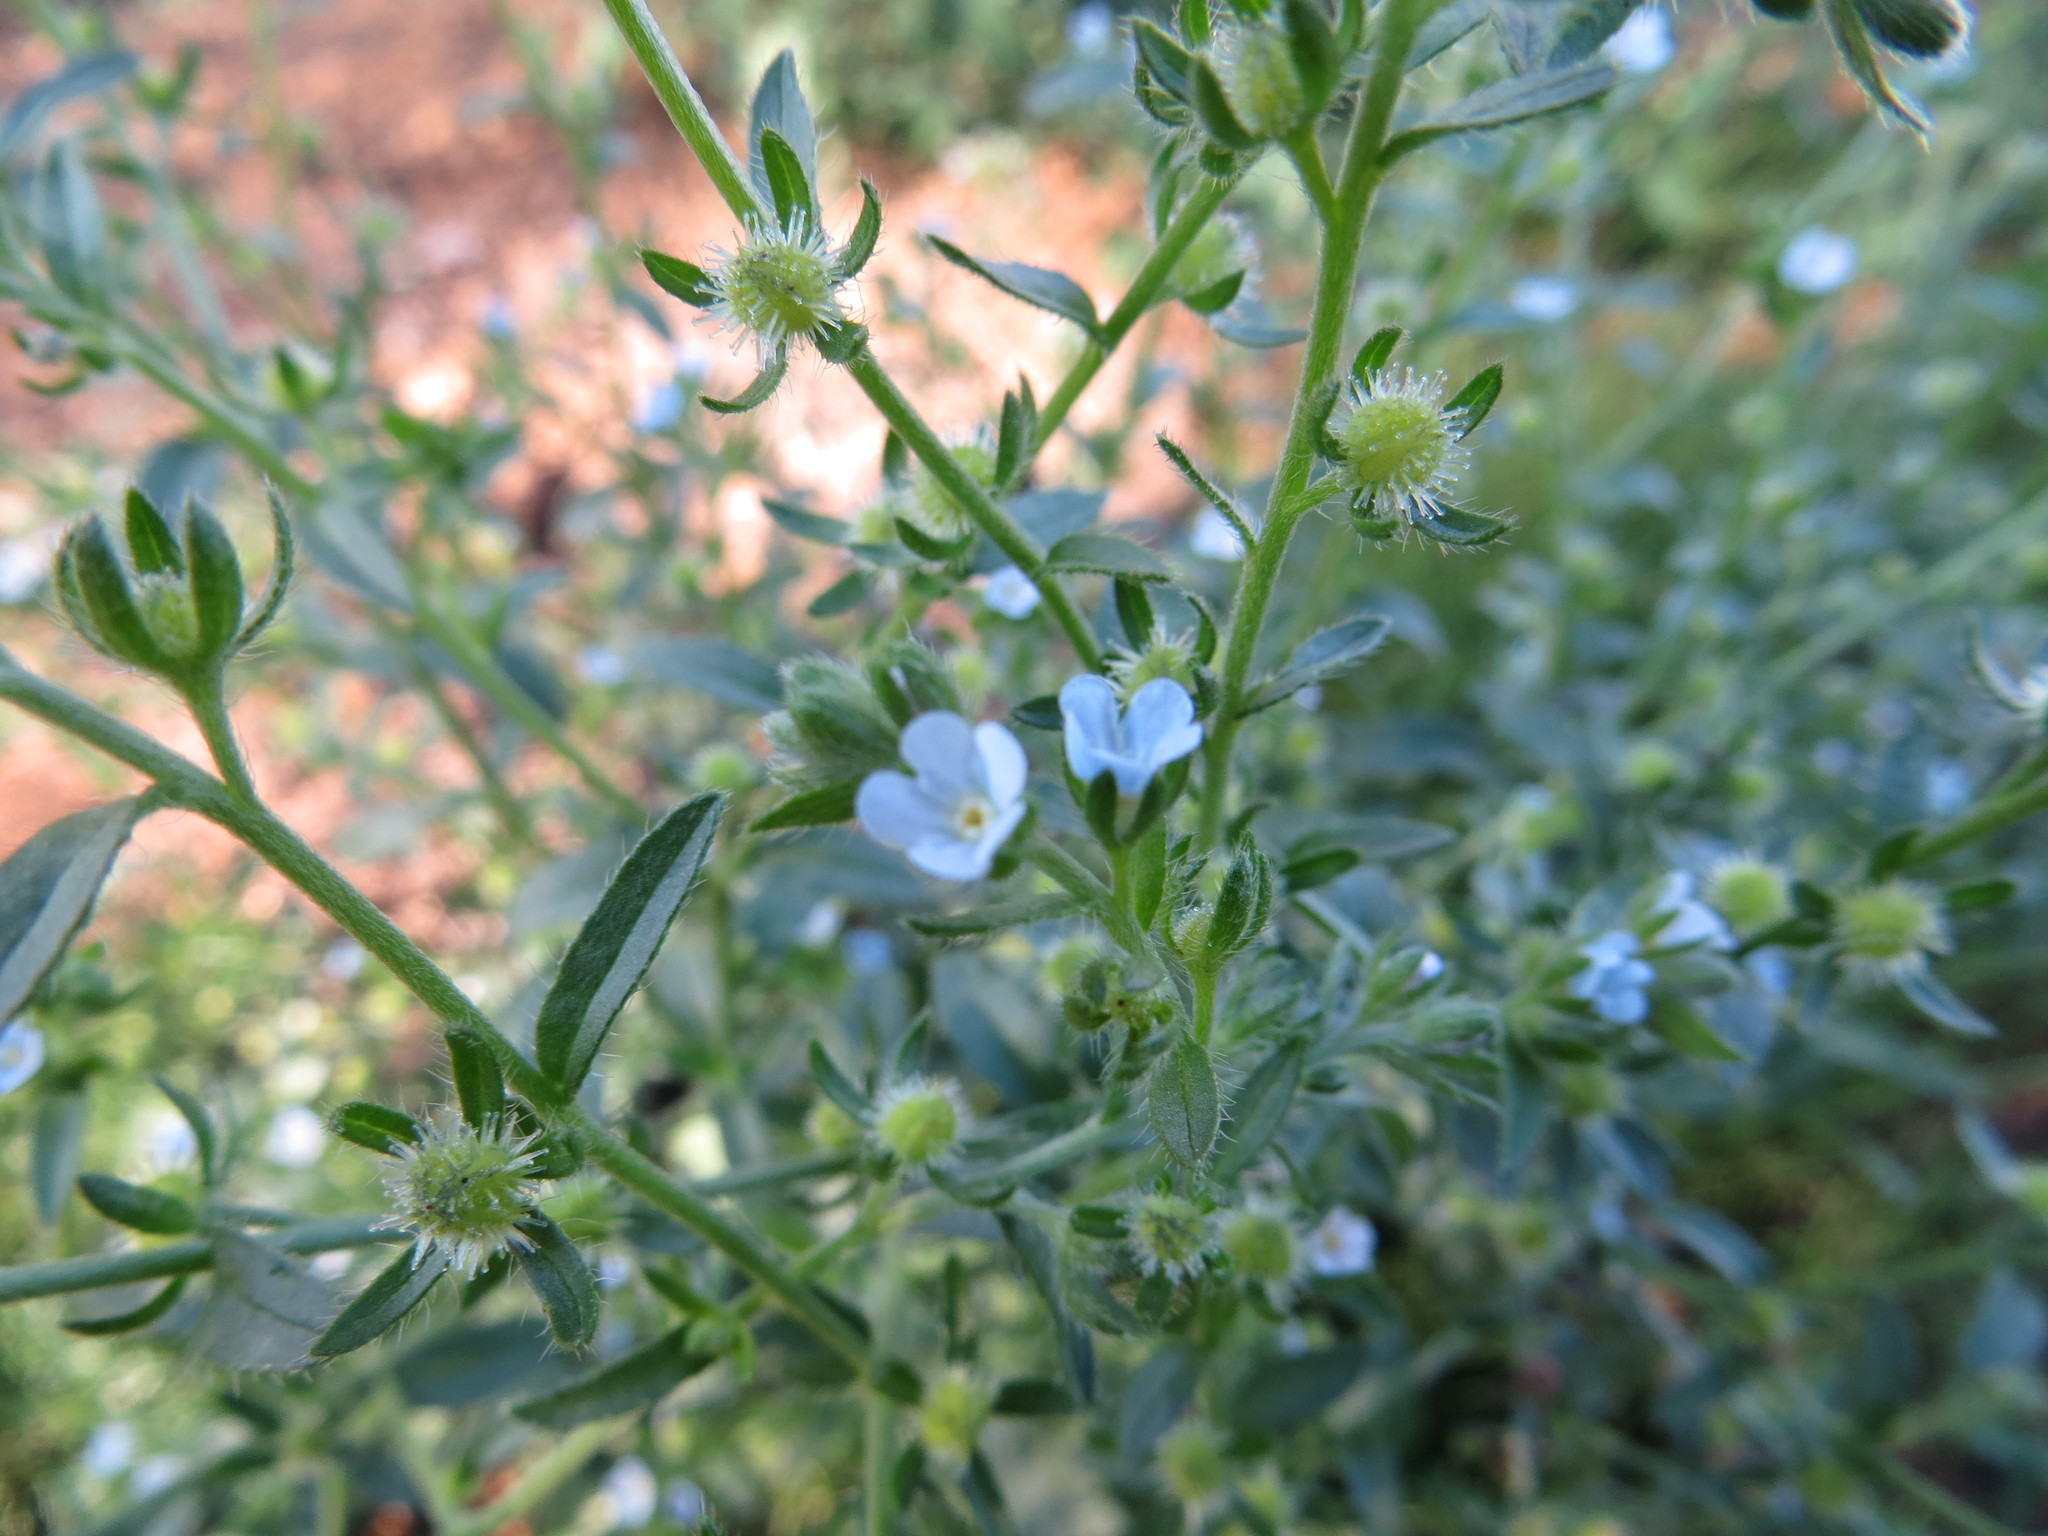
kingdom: Plantae
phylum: Tracheophyta
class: Magnoliopsida
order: Boraginales
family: Boraginaceae
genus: Lappula
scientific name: Lappula squarrosa
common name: European stickseed
